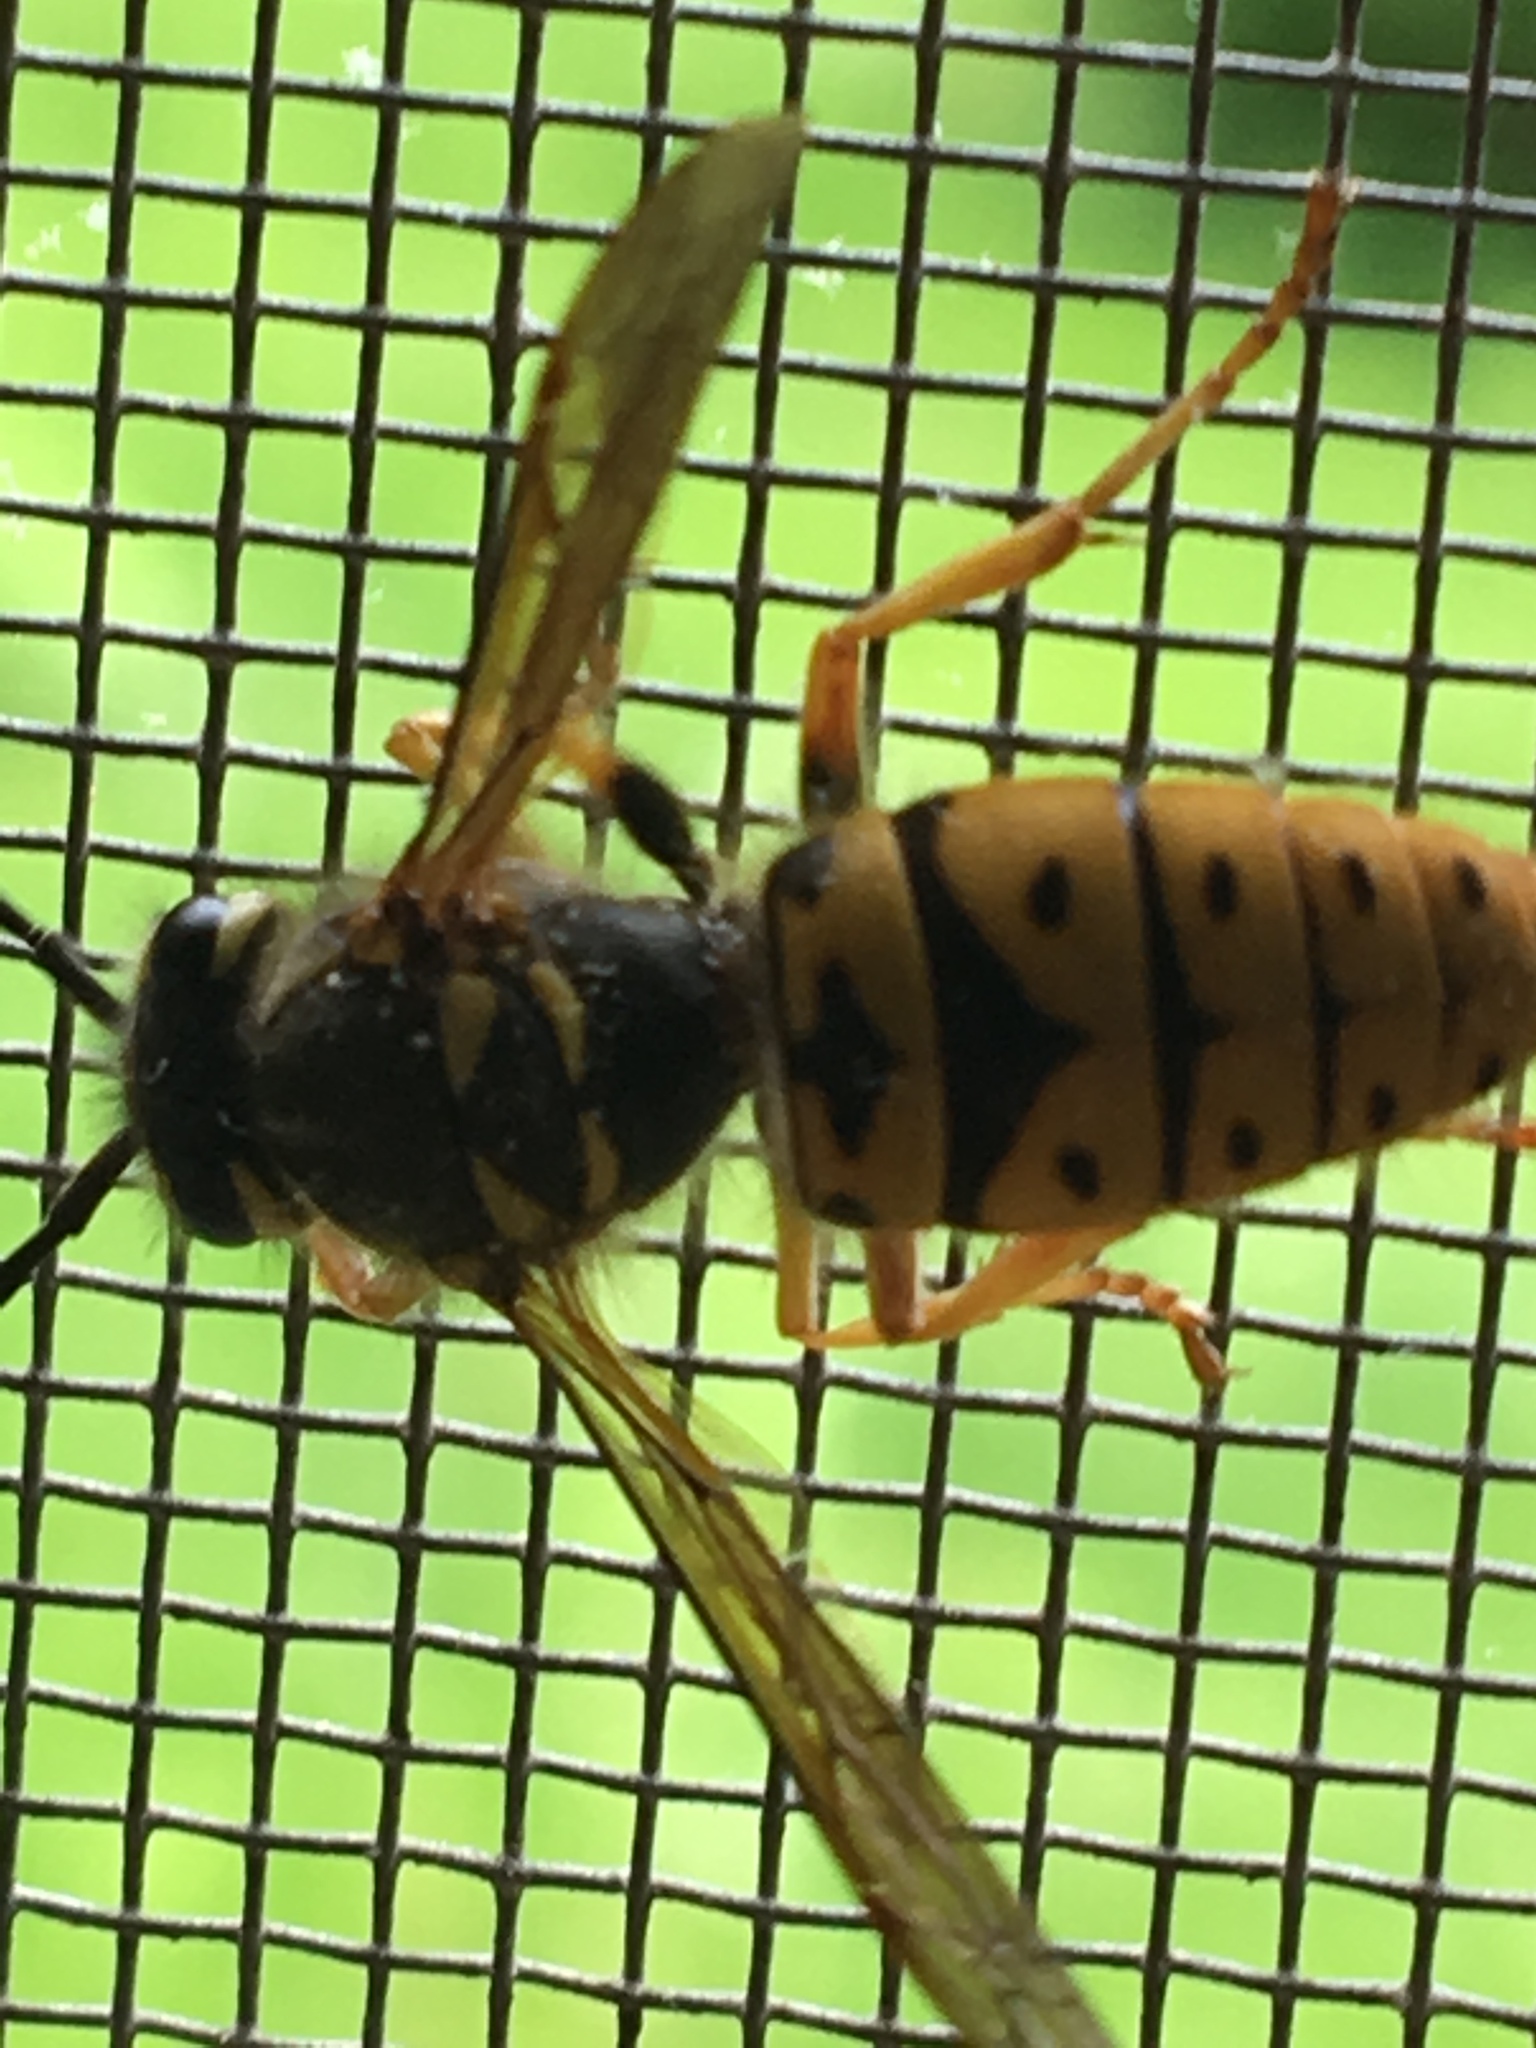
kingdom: Animalia
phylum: Arthropoda
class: Insecta
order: Hymenoptera
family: Vespidae
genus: Vespula
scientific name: Vespula maculifrons
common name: Eastern yellowjacket
